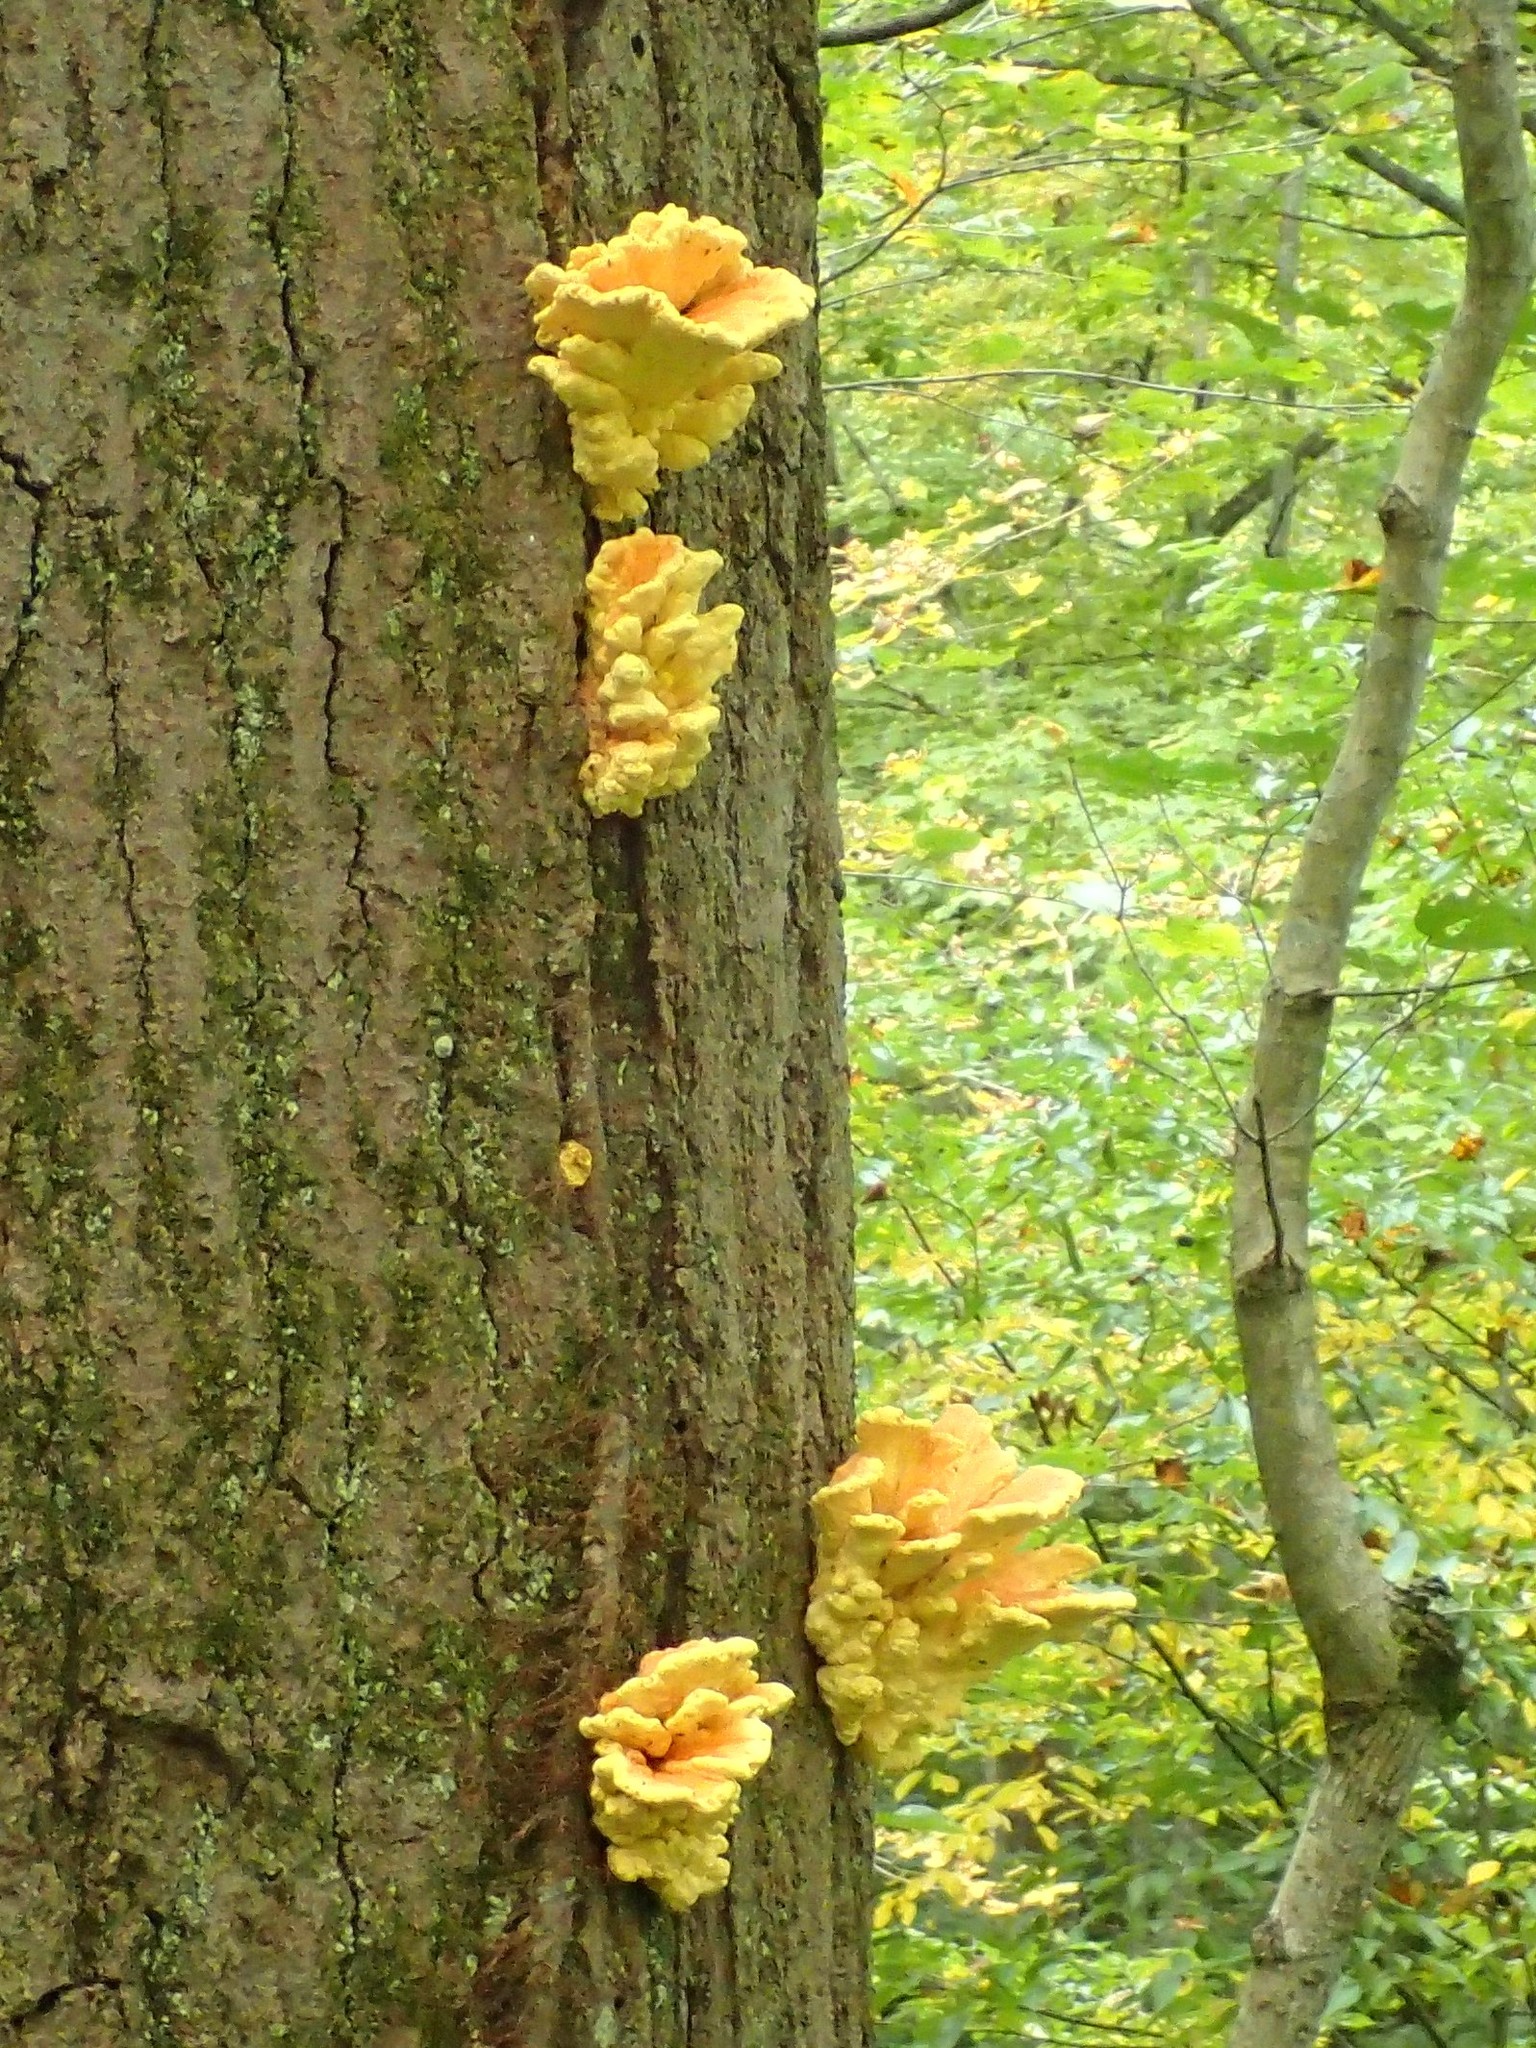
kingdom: Fungi
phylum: Basidiomycota
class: Agaricomycetes
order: Polyporales
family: Laetiporaceae
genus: Laetiporus
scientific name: Laetiporus sulphureus
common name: Chicken of the woods
